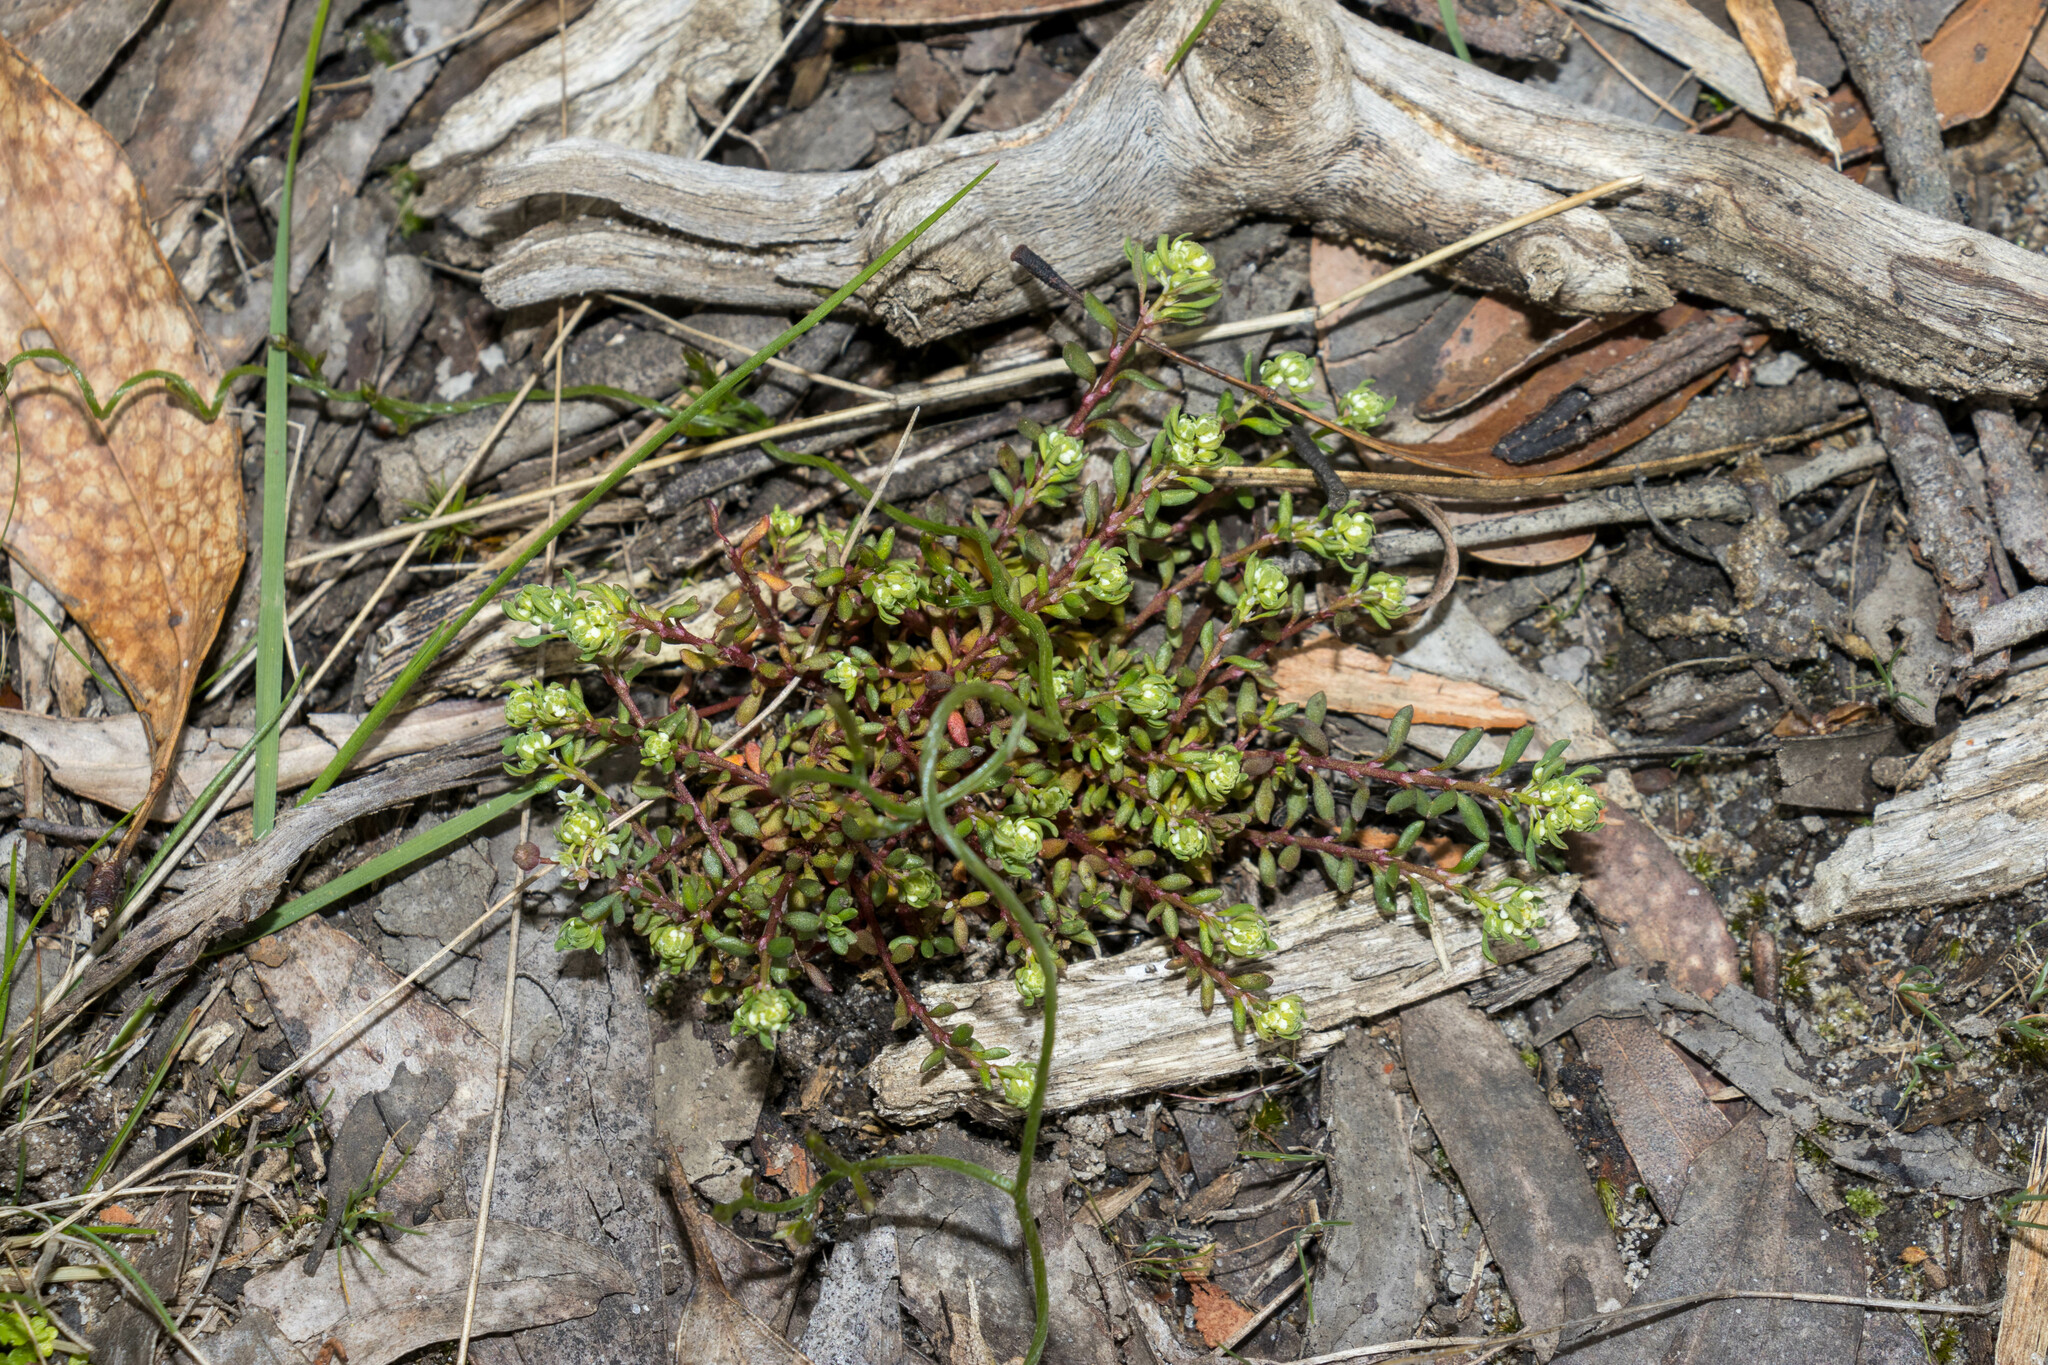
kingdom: Plantae
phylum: Tracheophyta
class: Magnoliopsida
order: Malpighiales
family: Phyllanthaceae
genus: Poranthera
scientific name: Poranthera microphylla
